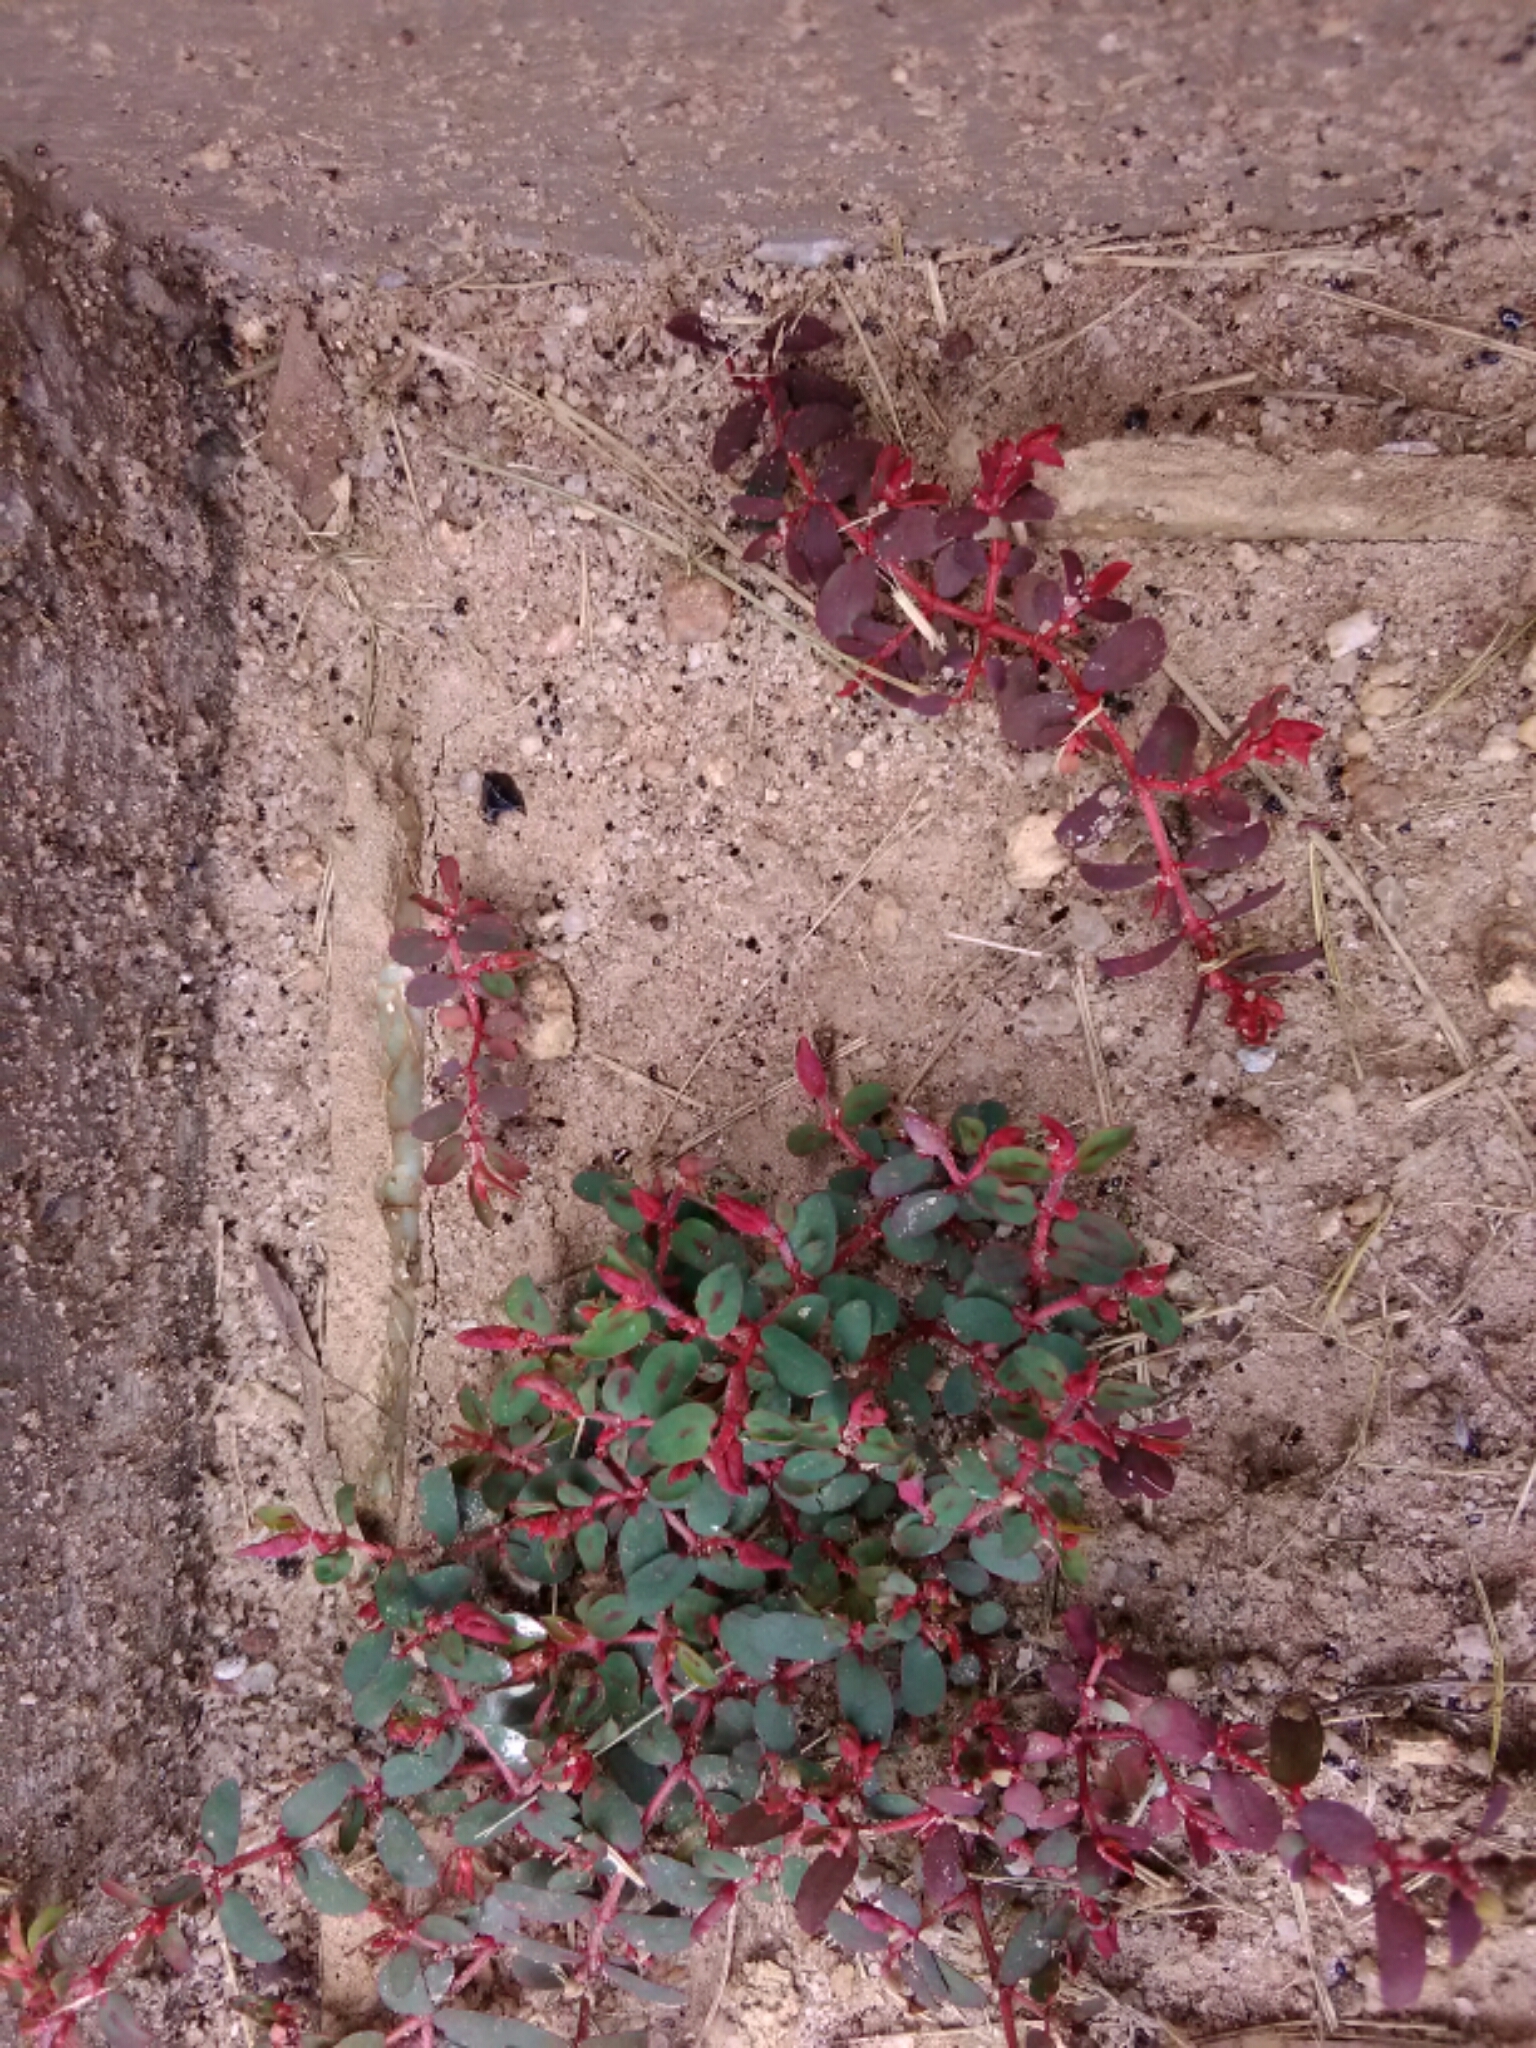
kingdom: Plantae
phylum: Tracheophyta
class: Magnoliopsida
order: Malpighiales
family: Euphorbiaceae
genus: Euphorbia
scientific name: Euphorbia maculata
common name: Spotted spurge
